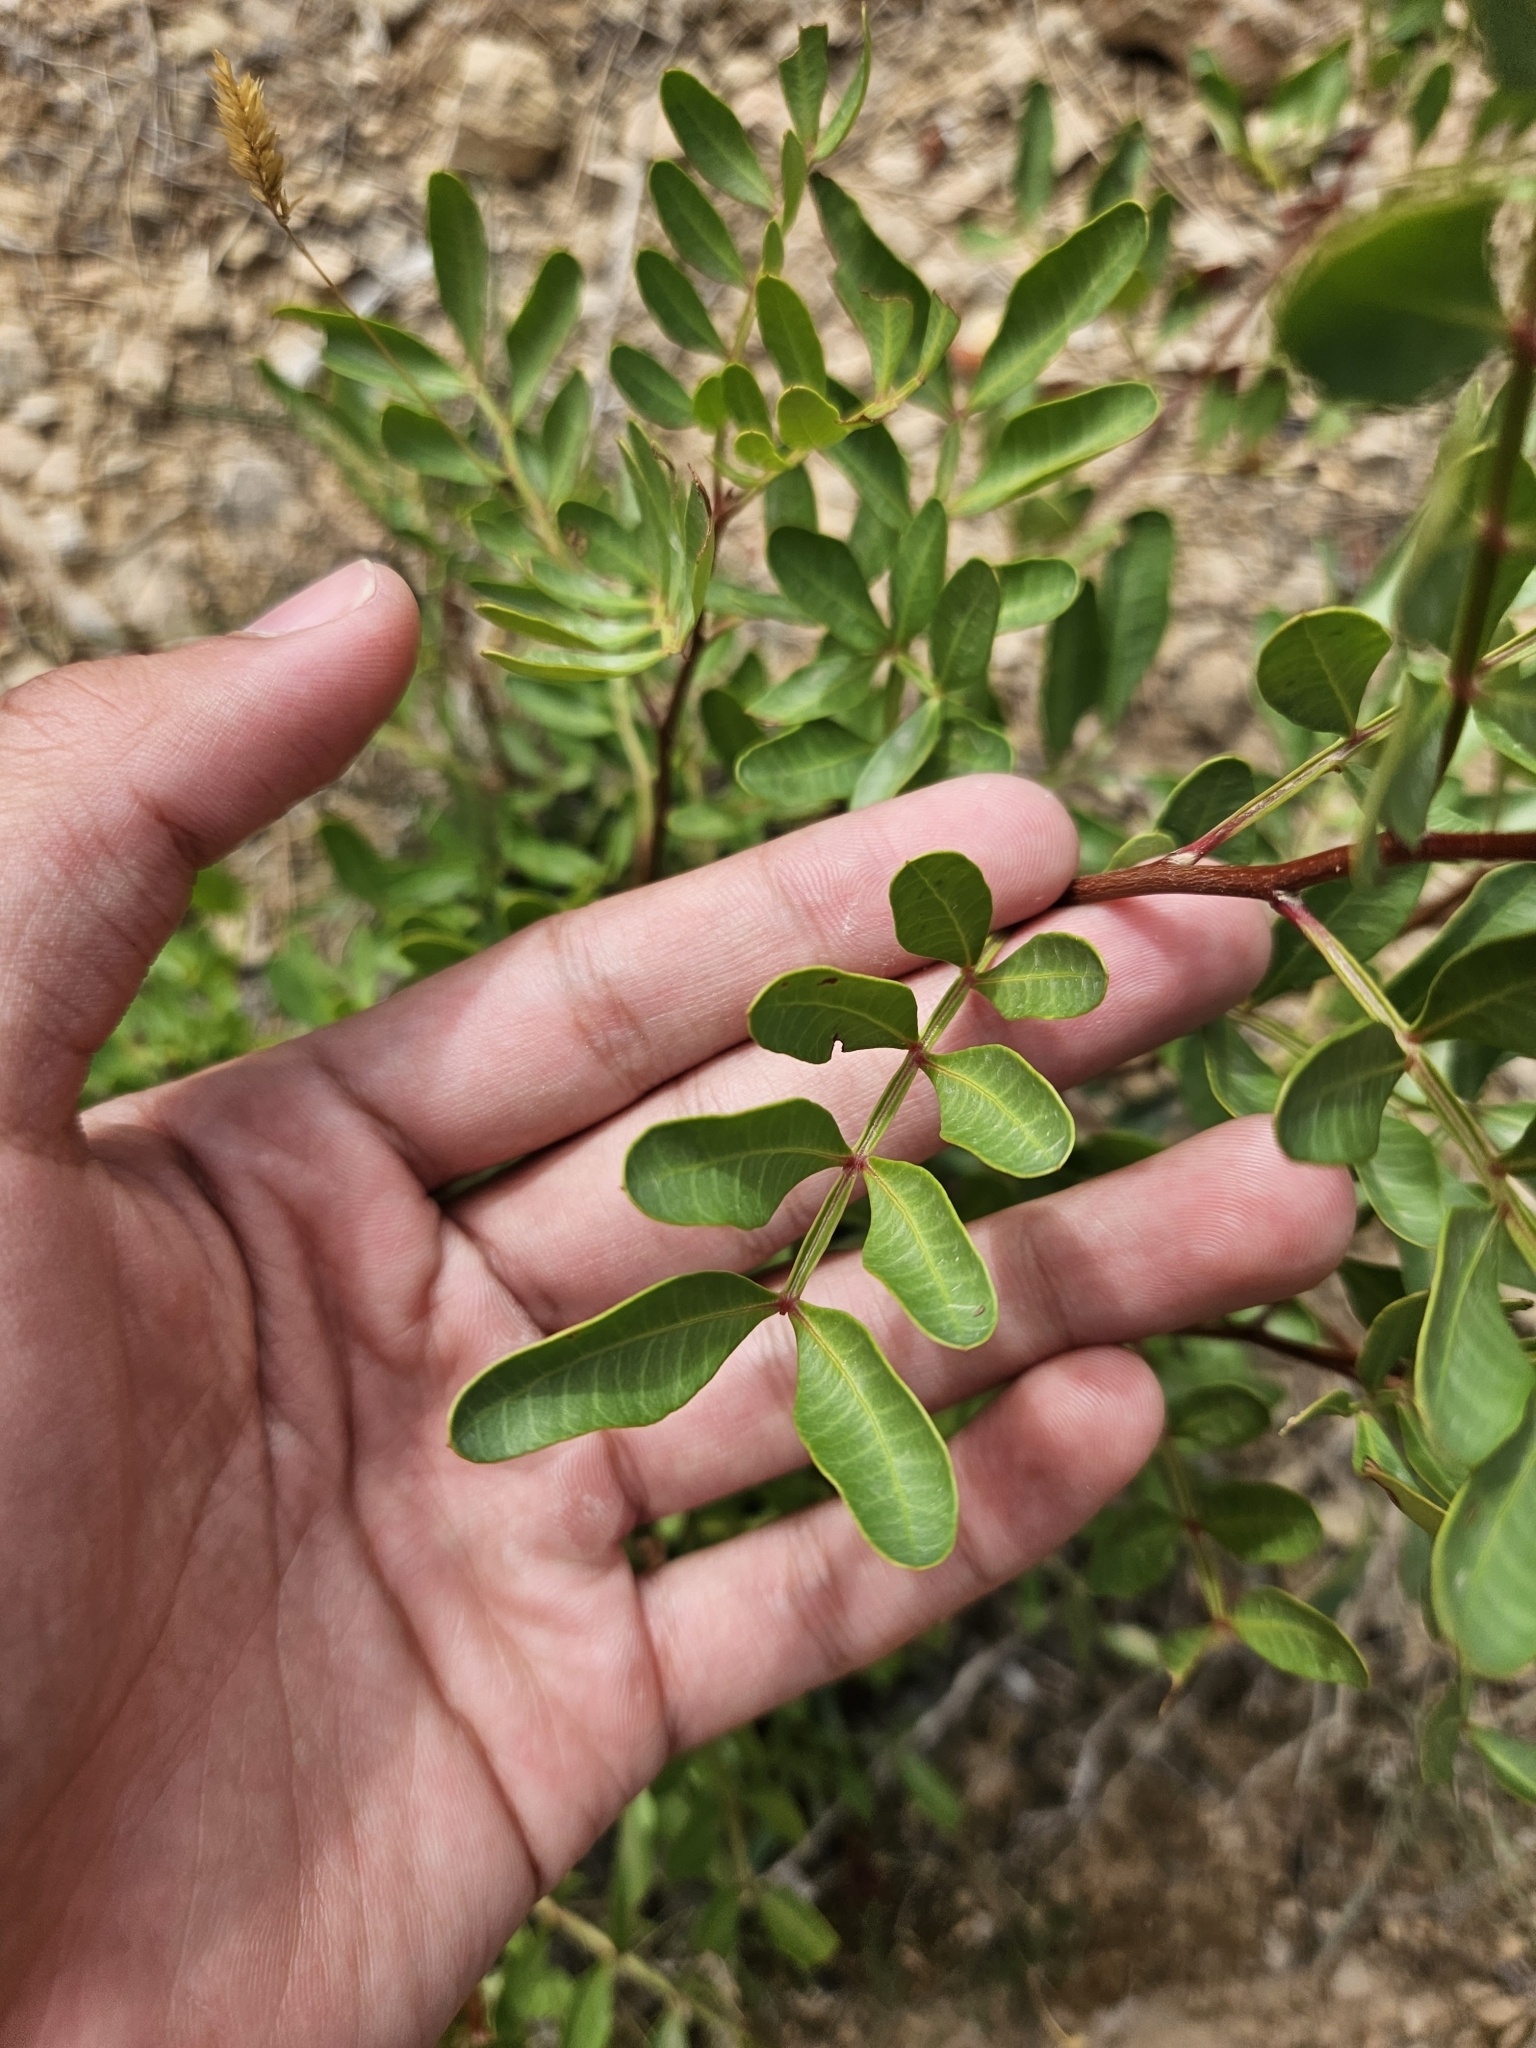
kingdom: Plantae
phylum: Tracheophyta
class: Magnoliopsida
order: Sapindales
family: Anacardiaceae
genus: Pistacia
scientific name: Pistacia lentiscus
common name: Lentisk
